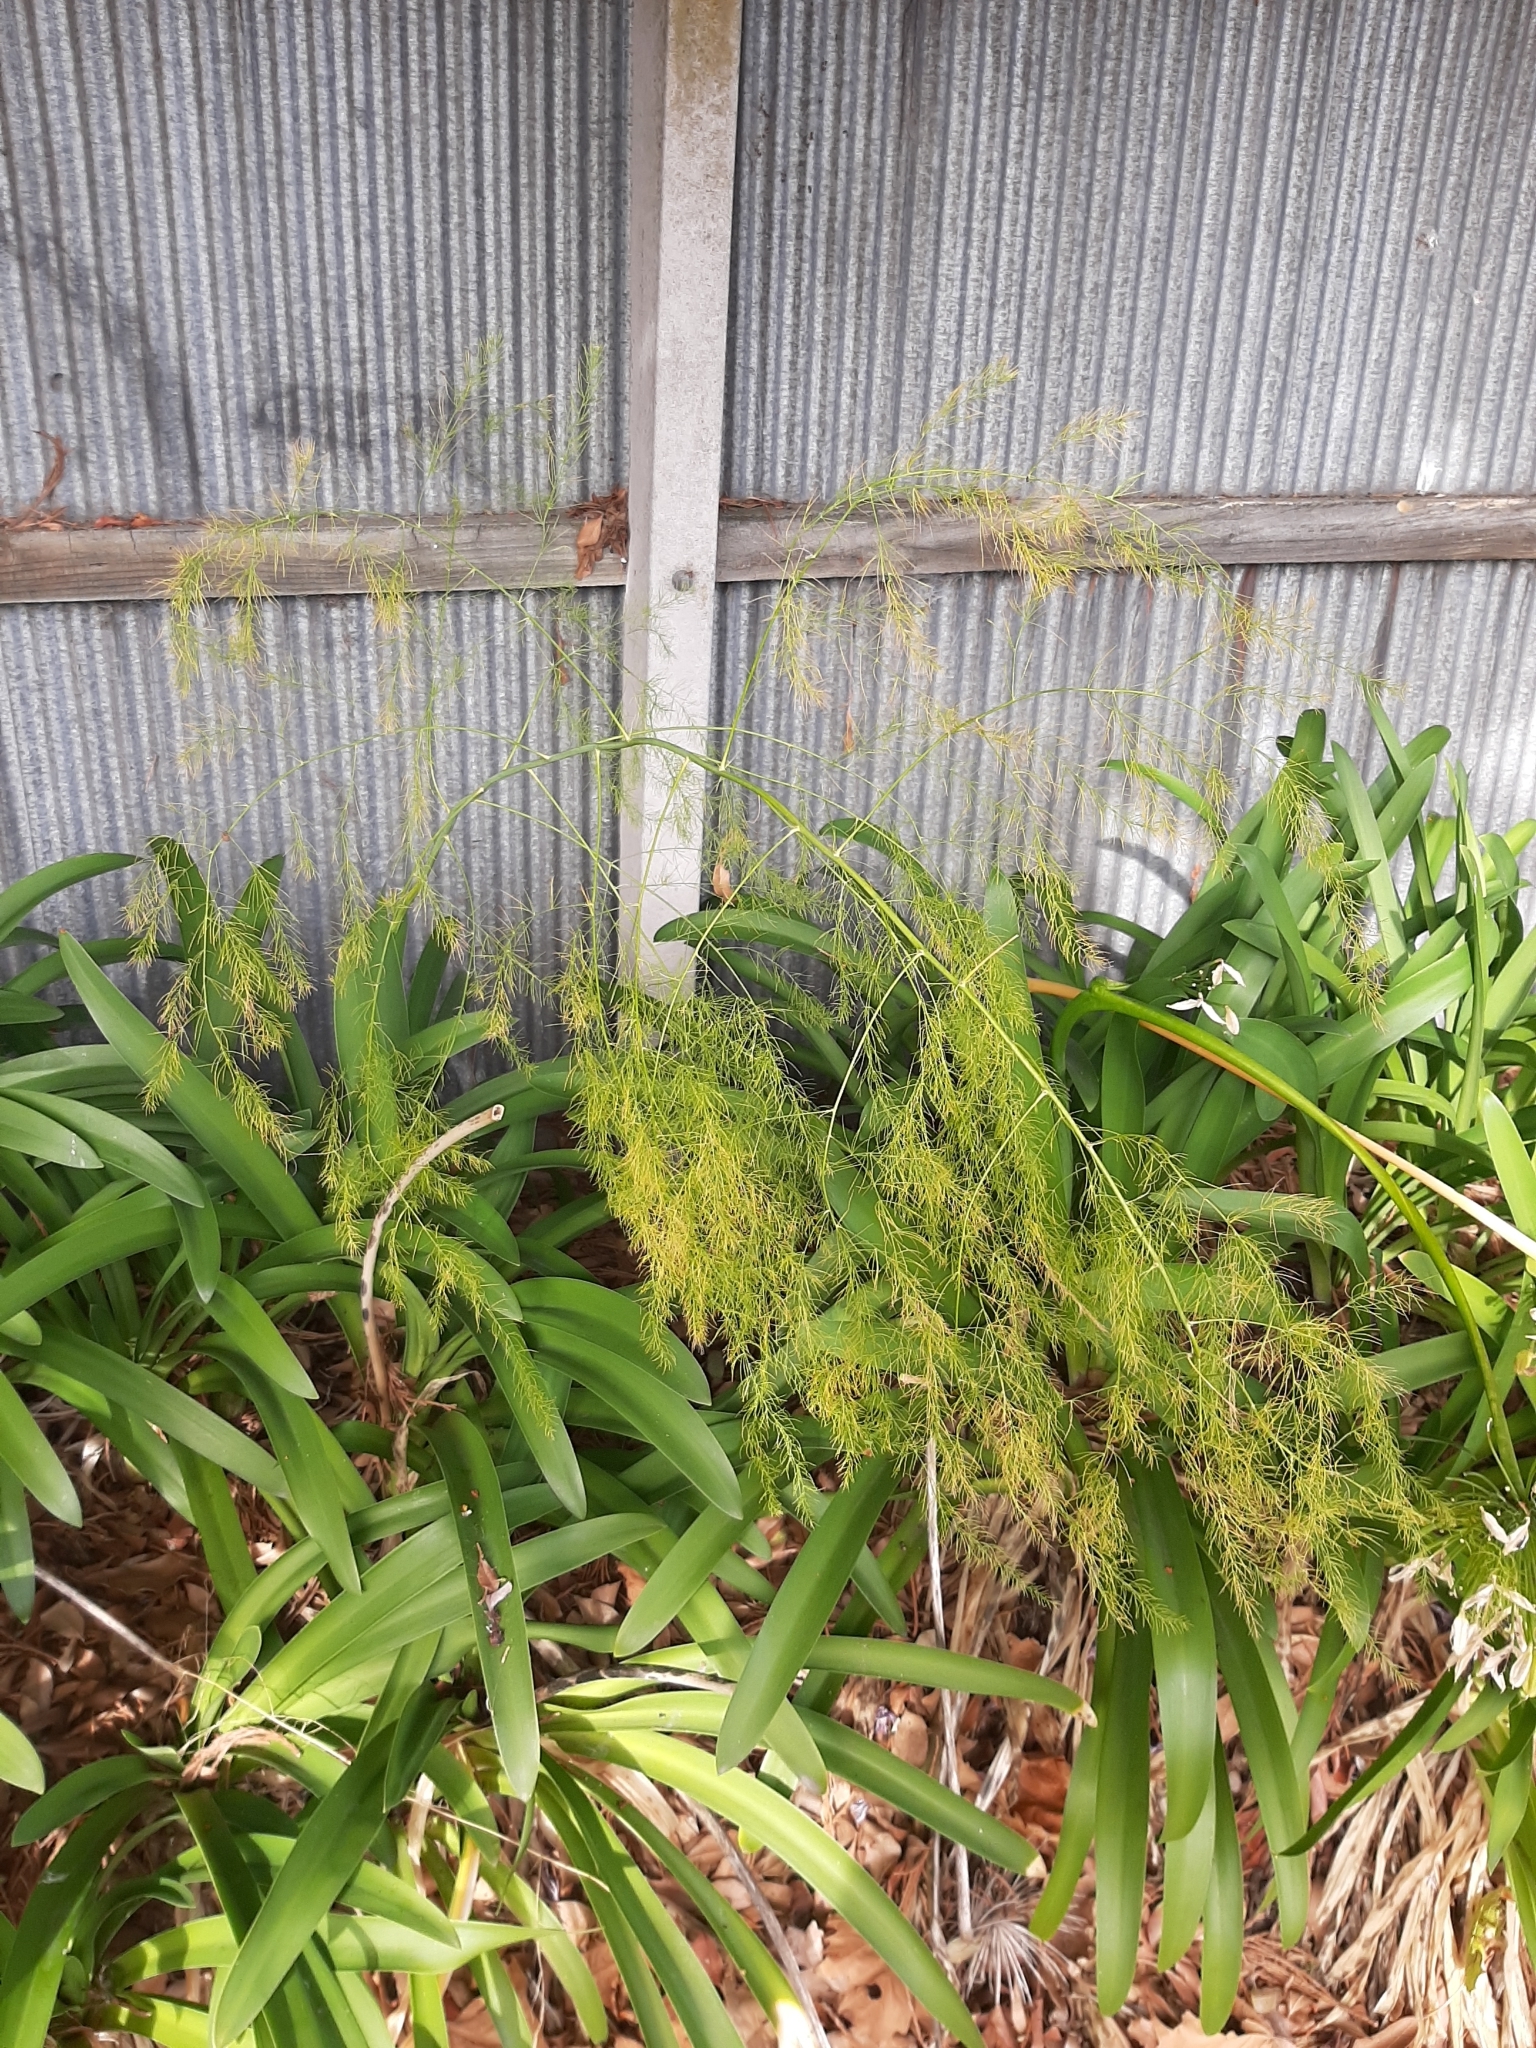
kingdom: Plantae
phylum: Tracheophyta
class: Liliopsida
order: Asparagales
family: Asparagaceae
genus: Asparagus
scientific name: Asparagus officinalis
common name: Garden asparagus
